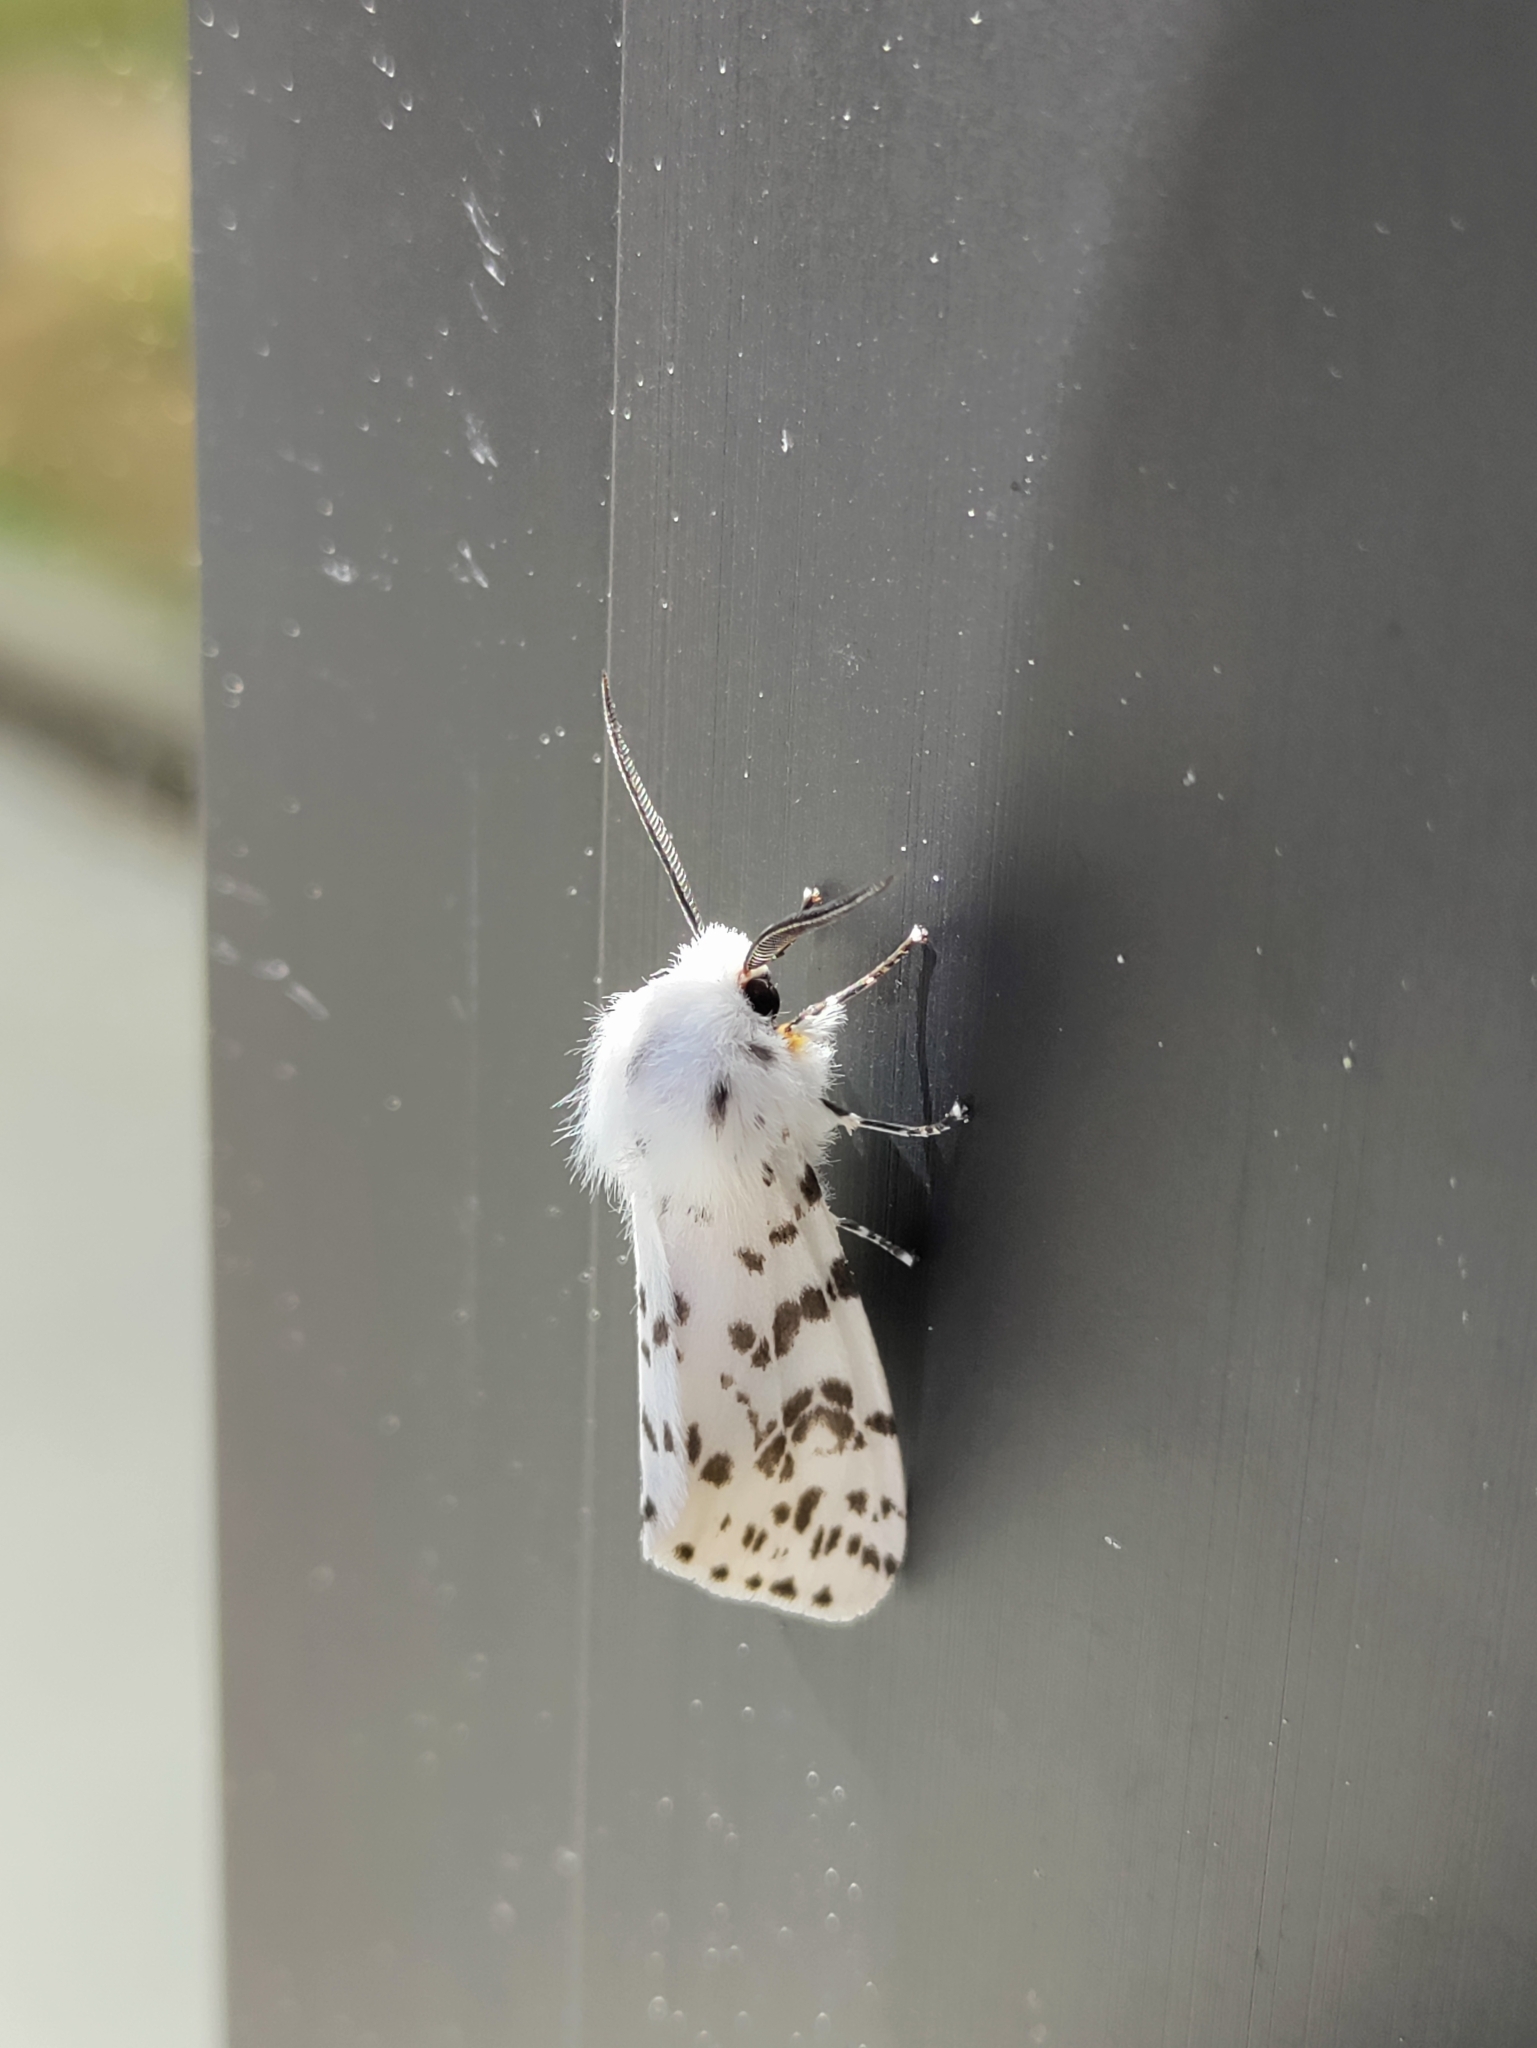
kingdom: Animalia
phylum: Arthropoda
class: Insecta
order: Lepidoptera
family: Erebidae
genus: Hyphantria
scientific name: Hyphantria cunea
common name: American white moth
